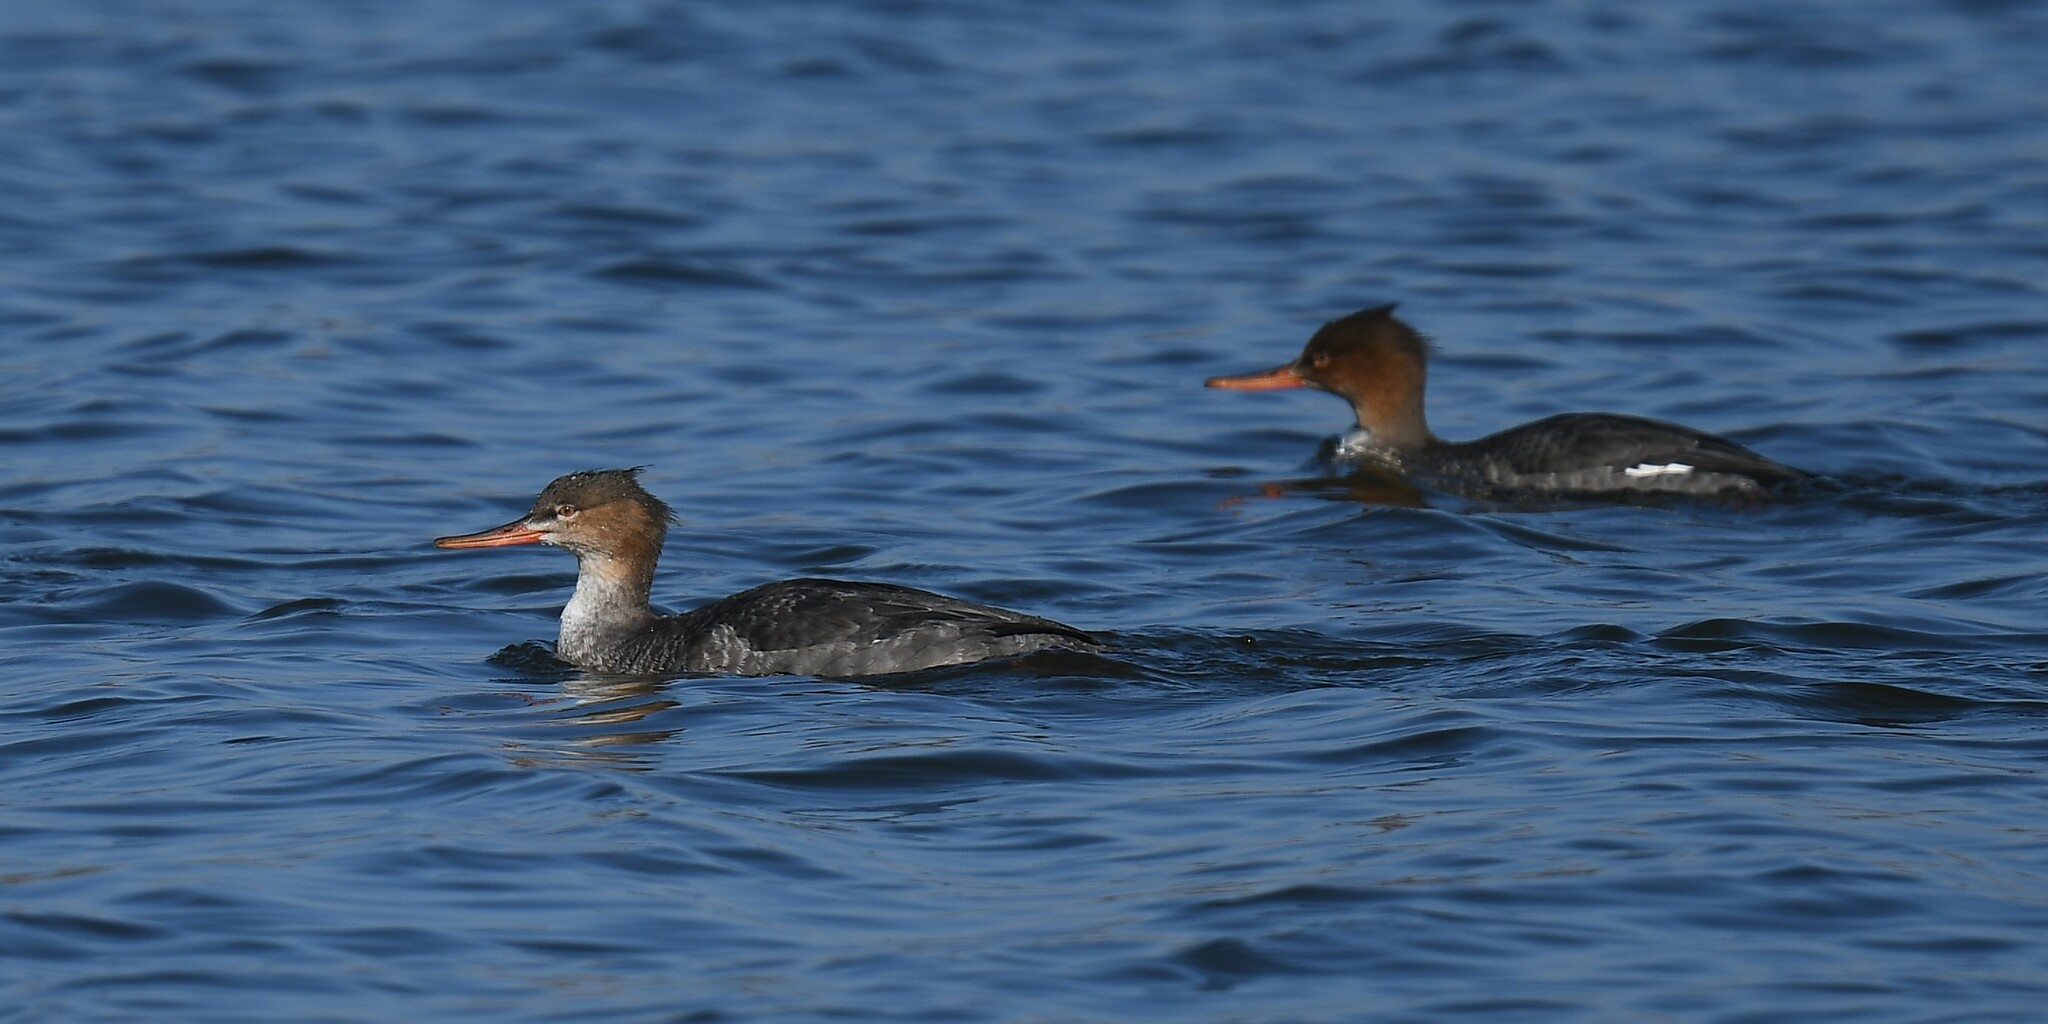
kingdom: Animalia
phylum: Chordata
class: Aves
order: Anseriformes
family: Anatidae
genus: Mergus
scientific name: Mergus serrator
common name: Red-breasted merganser
